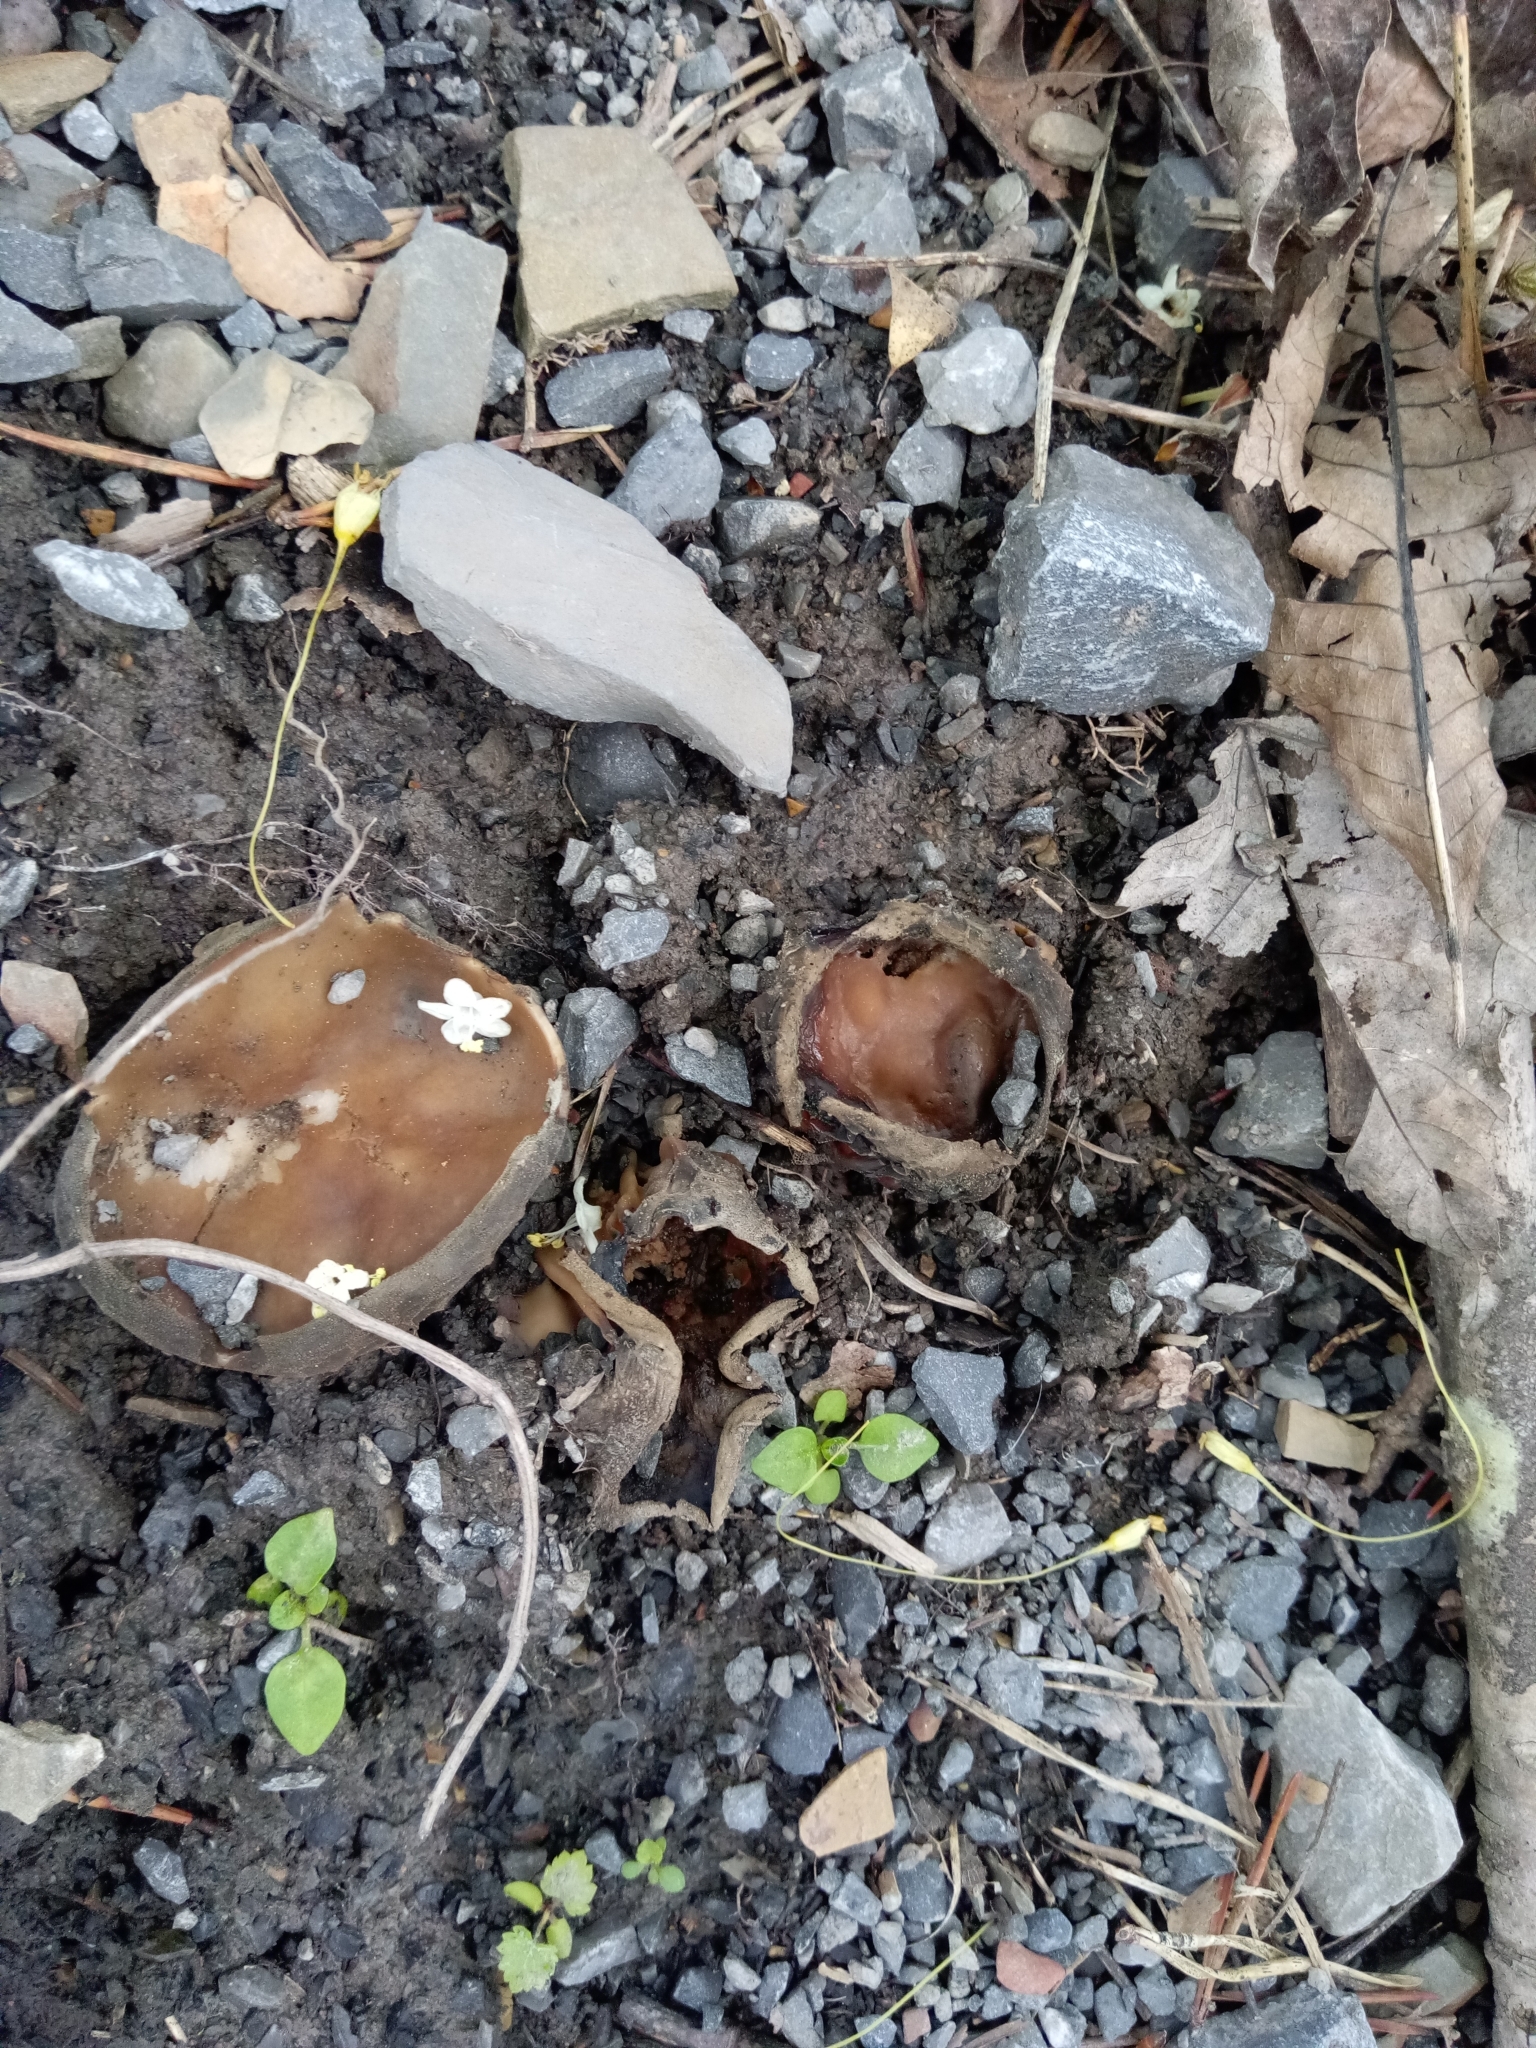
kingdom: Fungi
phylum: Ascomycota
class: Pezizomycetes
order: Pezizales
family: Helvellaceae
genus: Helvella
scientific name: Helvella acetabulum
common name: Vinegar cup
